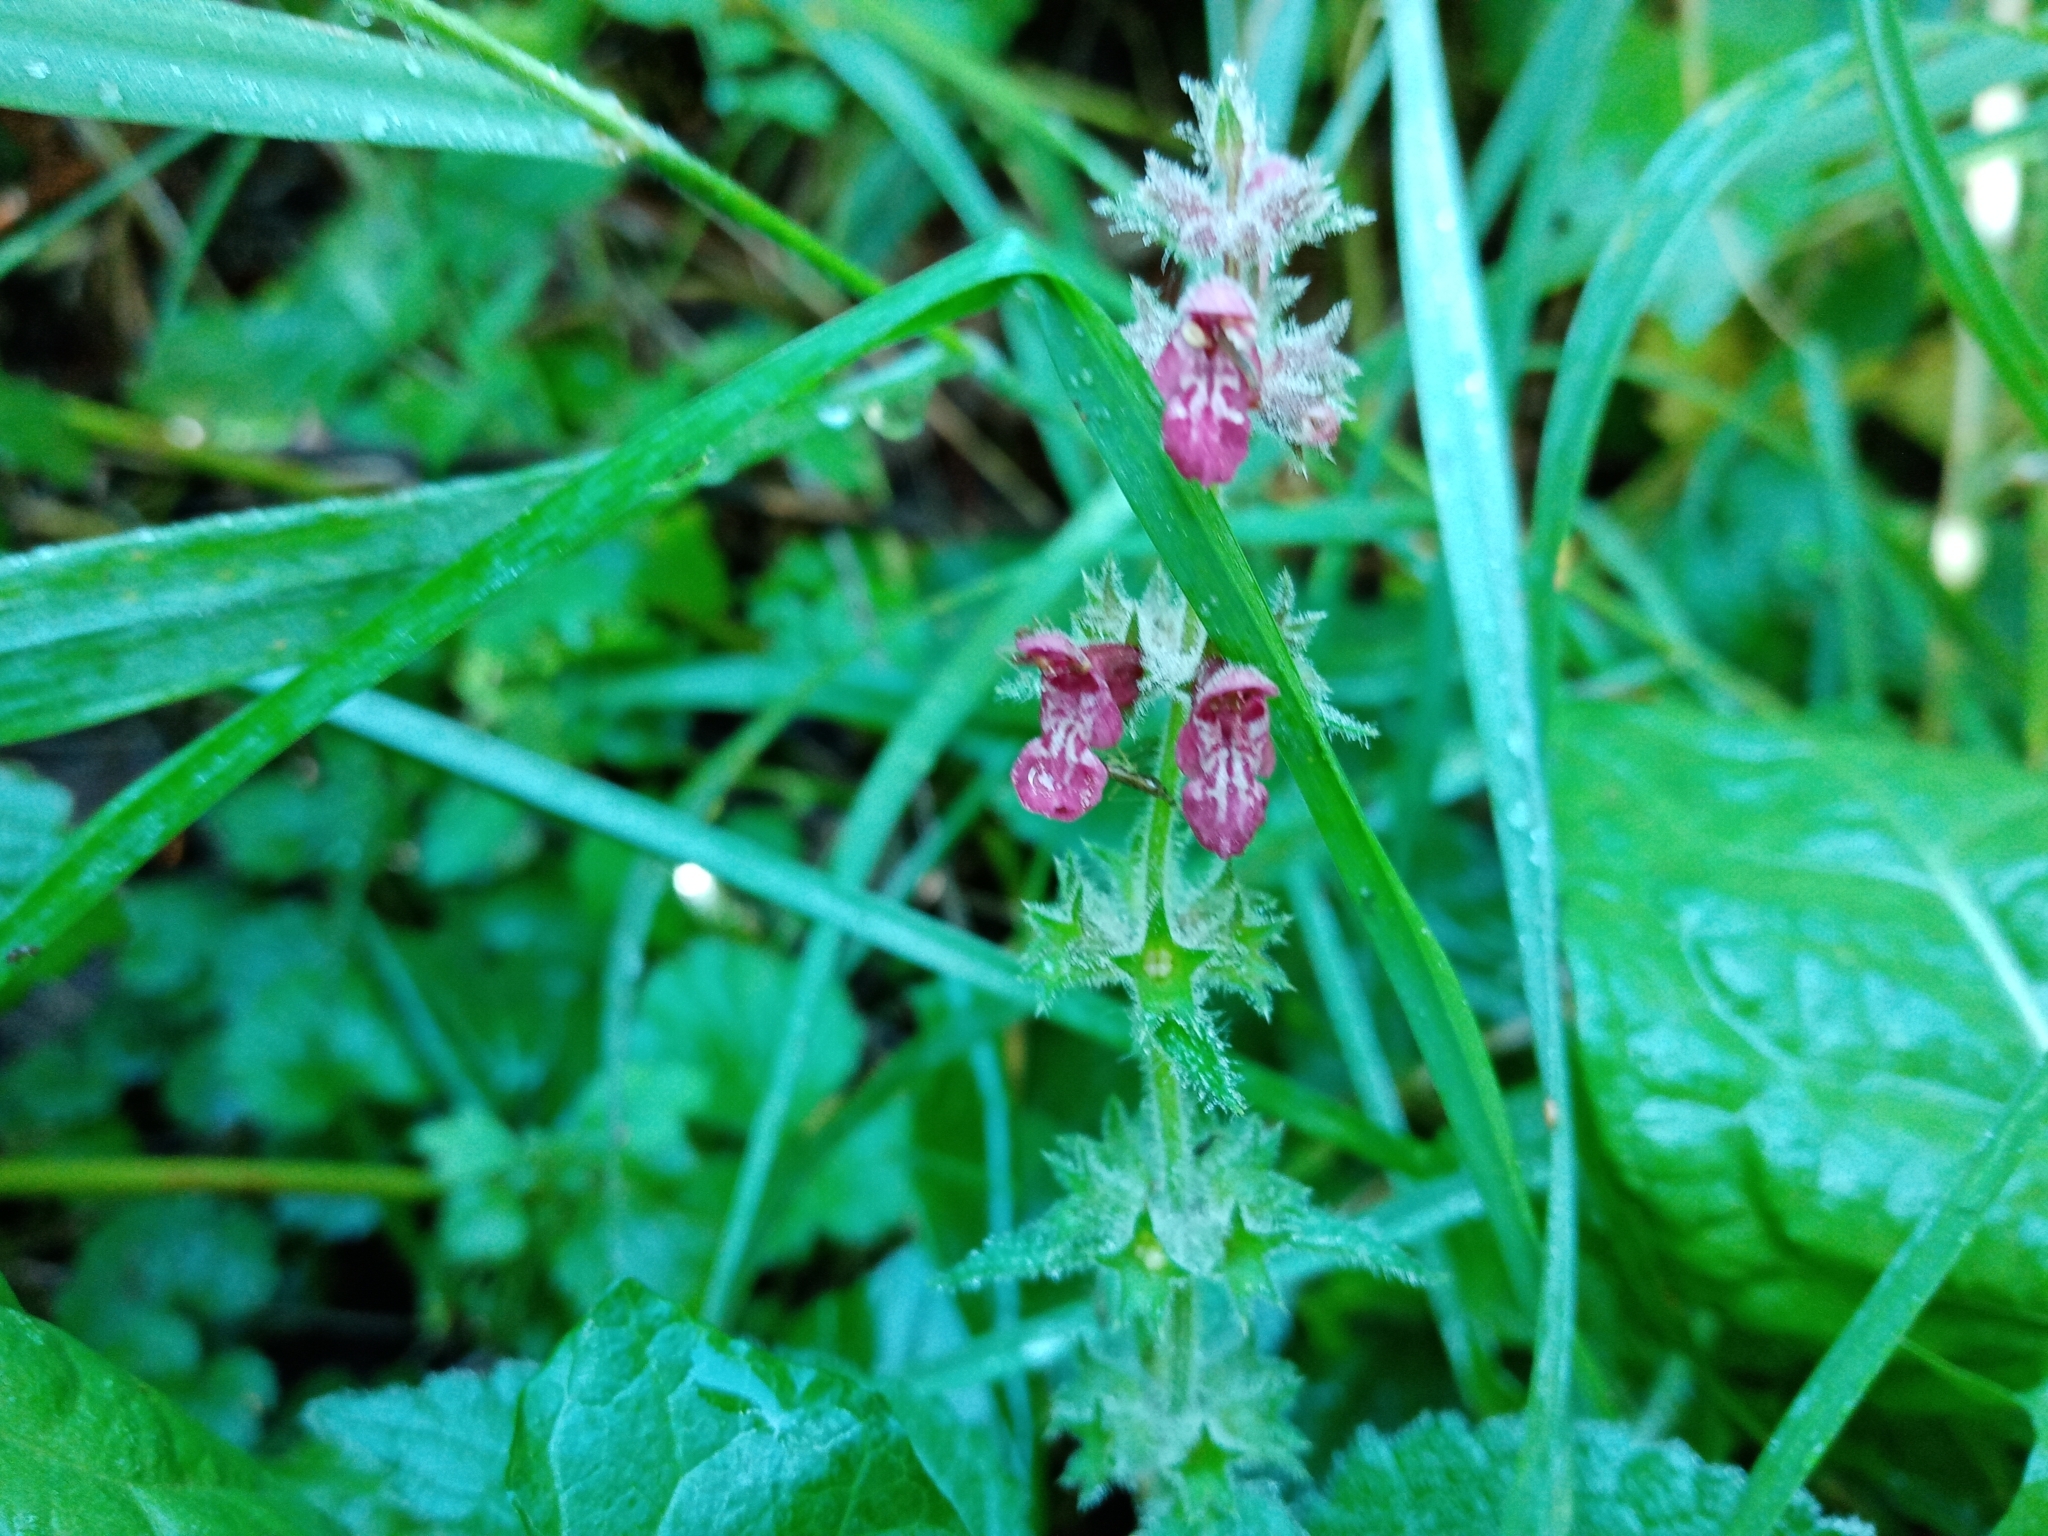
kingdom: Plantae
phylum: Tracheophyta
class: Magnoliopsida
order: Lamiales
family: Lamiaceae
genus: Stachys
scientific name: Stachys sylvatica
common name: Hedge woundwort
